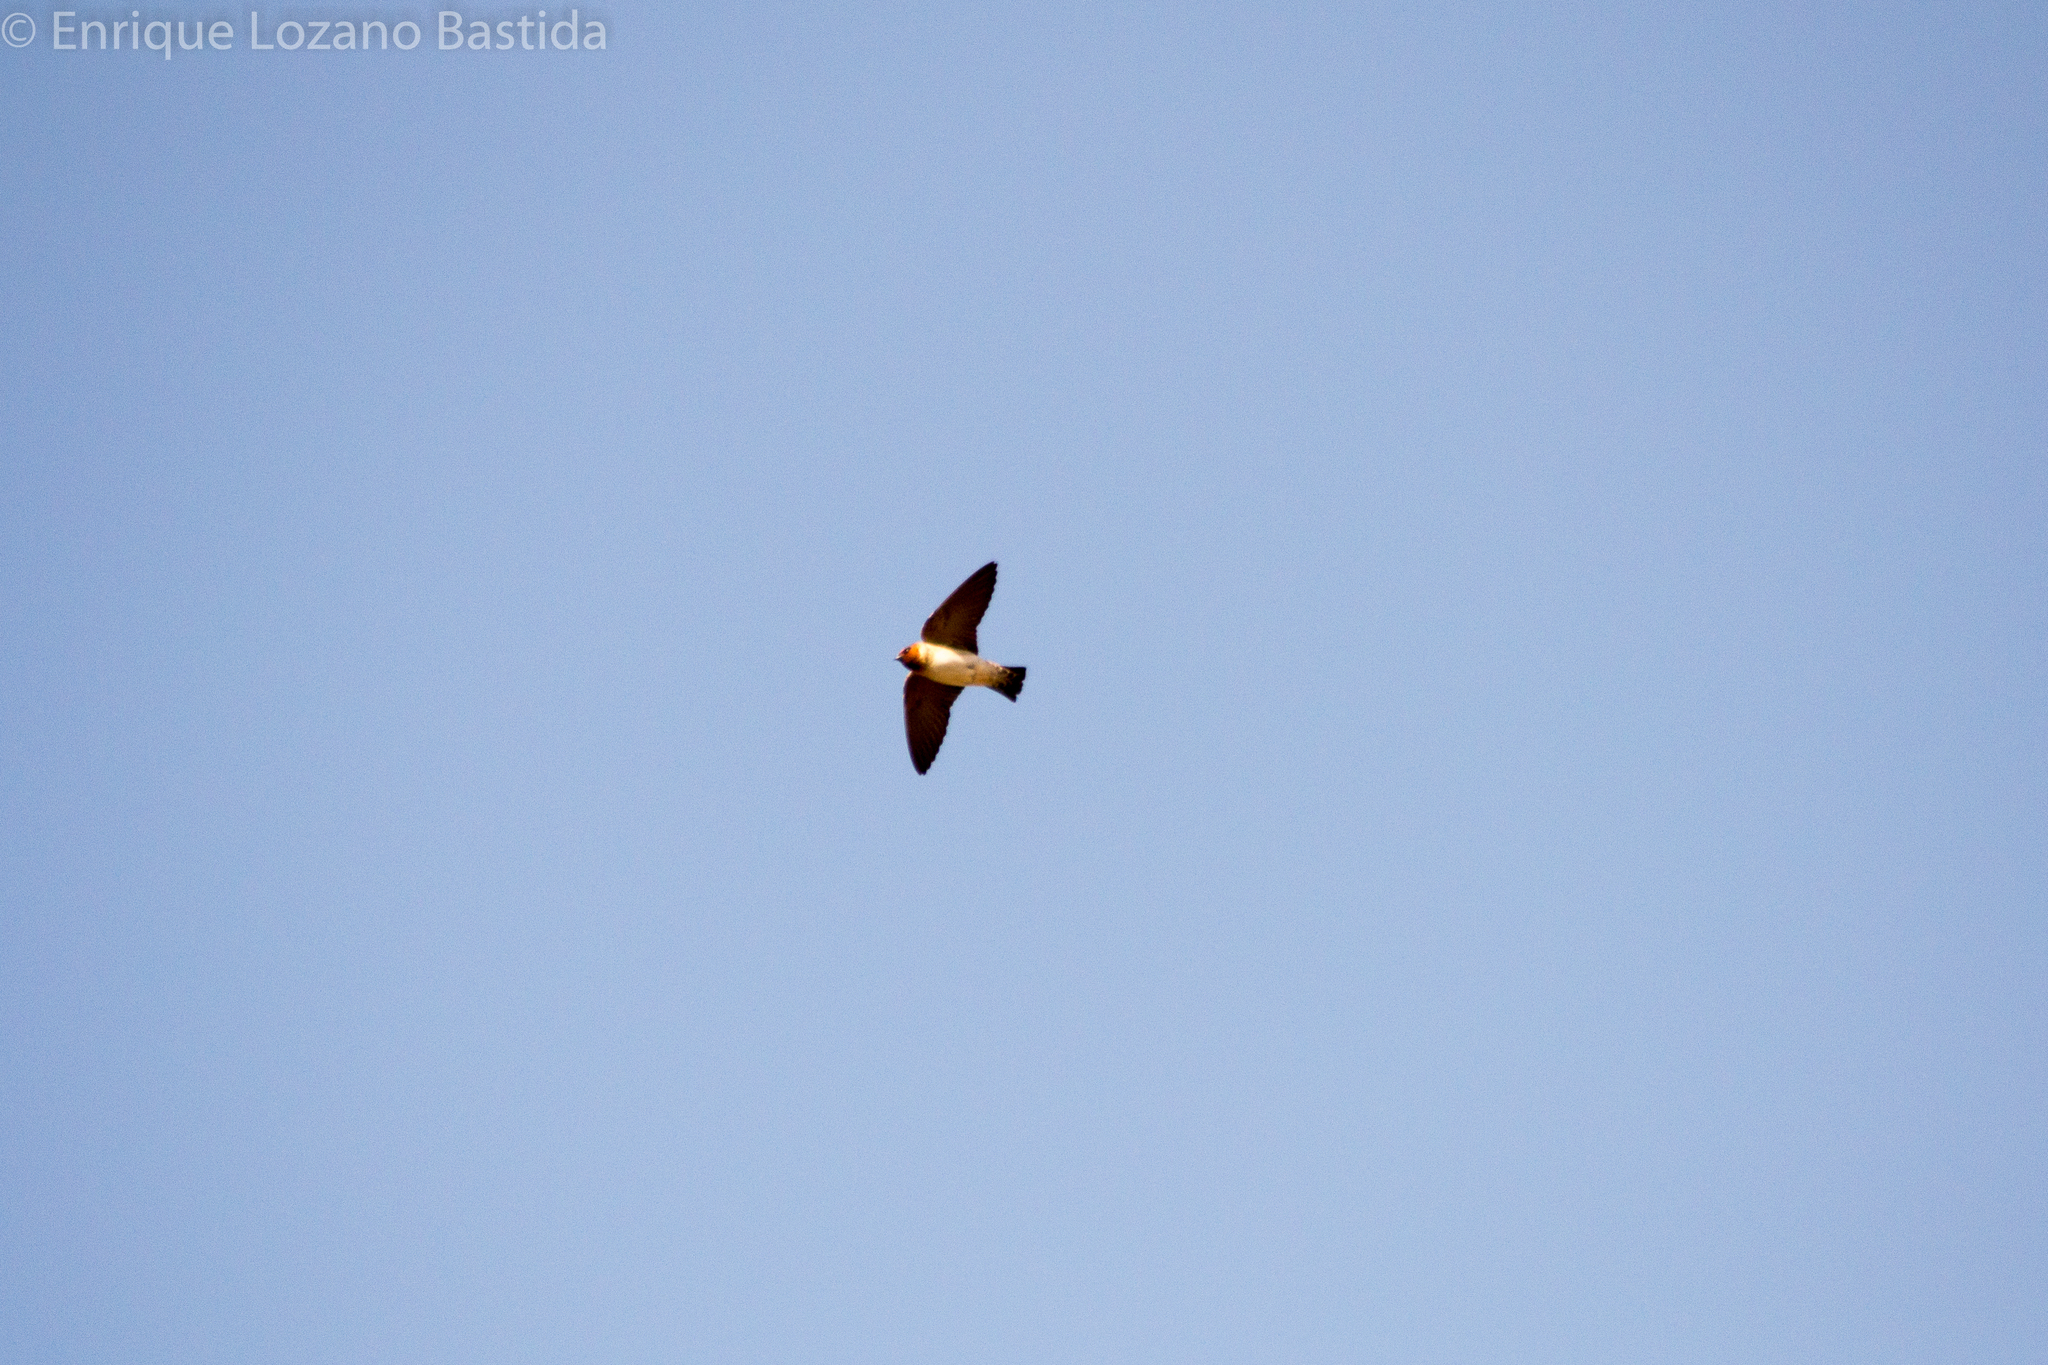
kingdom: Animalia
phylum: Chordata
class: Aves
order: Passeriformes
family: Hirundinidae
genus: Petrochelidon
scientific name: Petrochelidon pyrrhonota
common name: American cliff swallow
